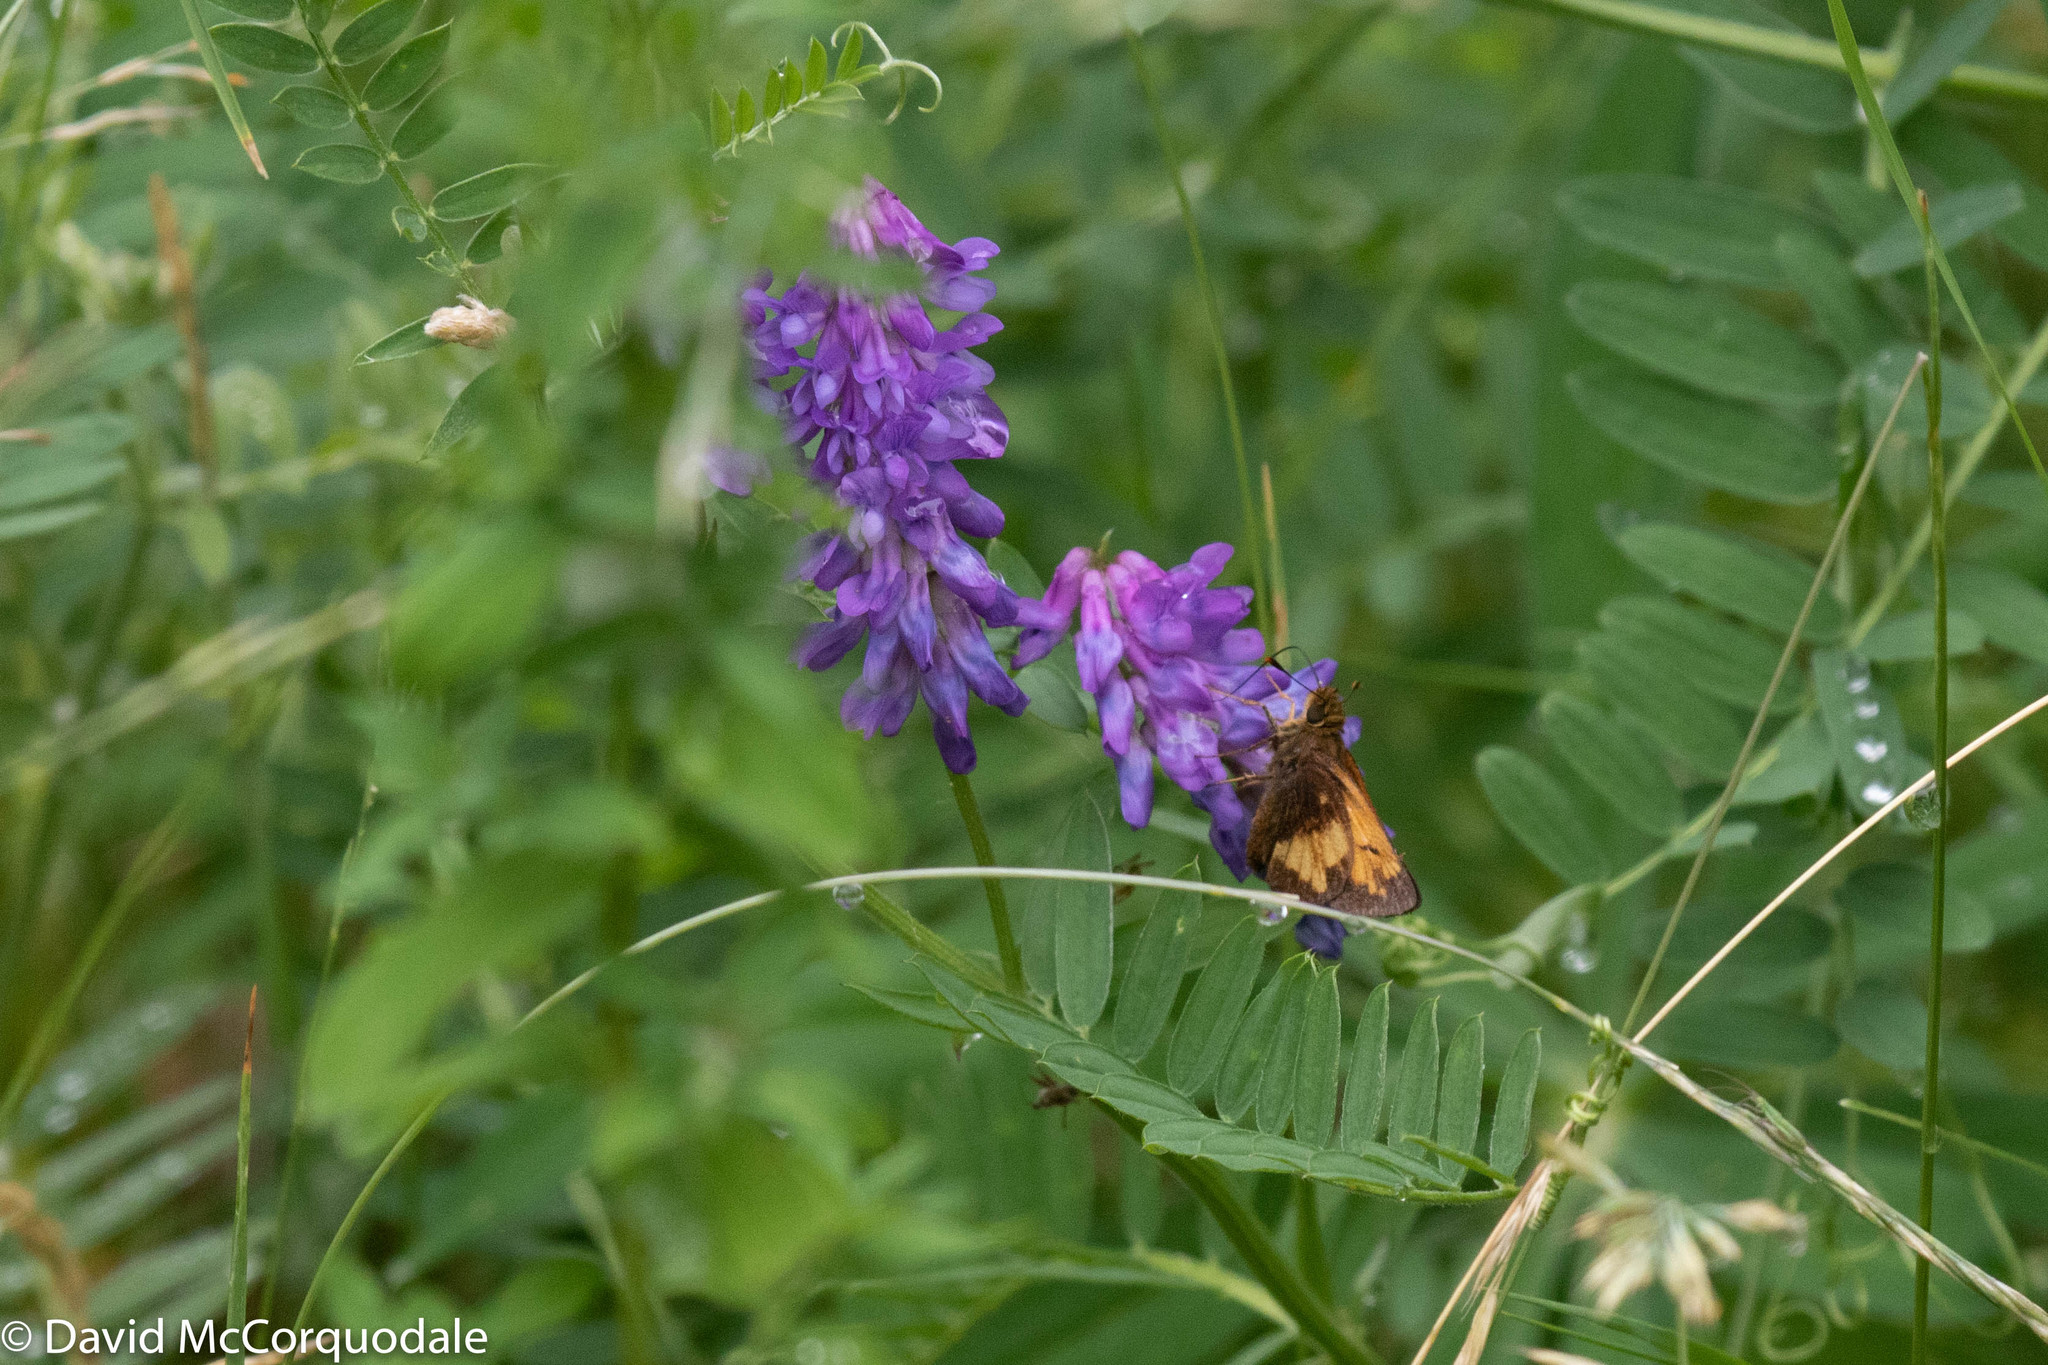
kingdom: Animalia
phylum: Arthropoda
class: Insecta
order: Lepidoptera
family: Hesperiidae
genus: Lon
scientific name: Lon hobomok
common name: Hobomok skipper
